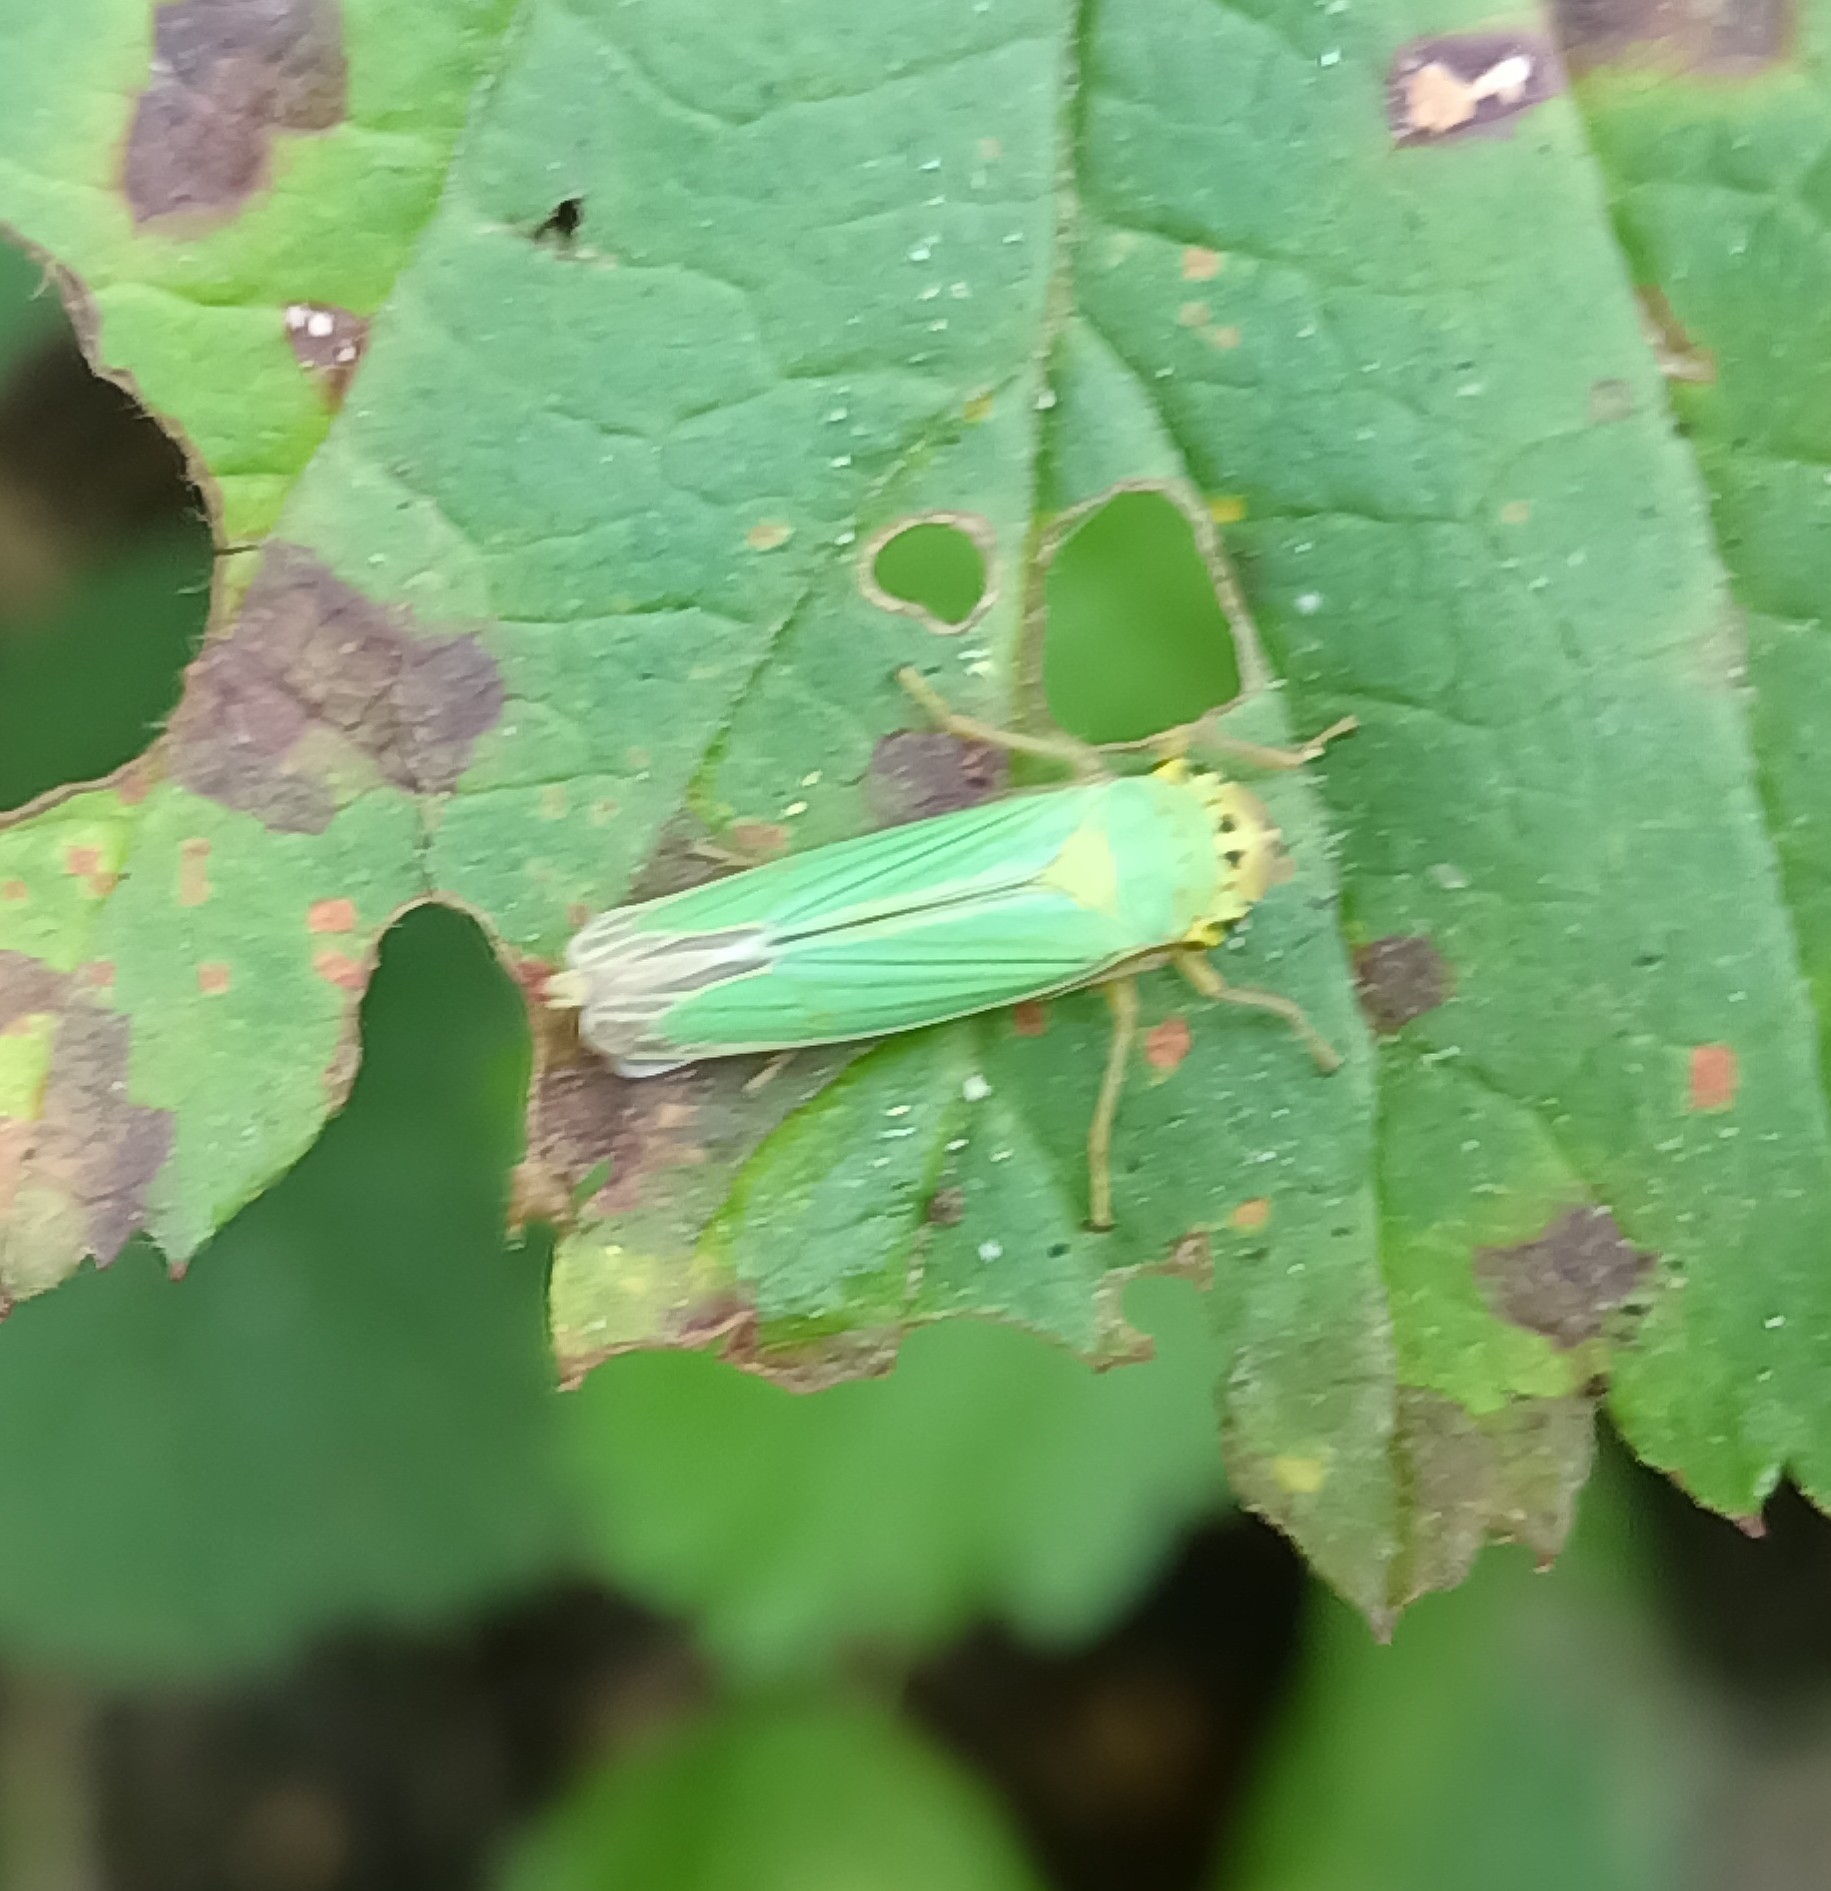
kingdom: Animalia
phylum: Arthropoda
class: Insecta
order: Hemiptera
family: Cicadellidae
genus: Cicadella
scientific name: Cicadella viridis
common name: Leafhopper
